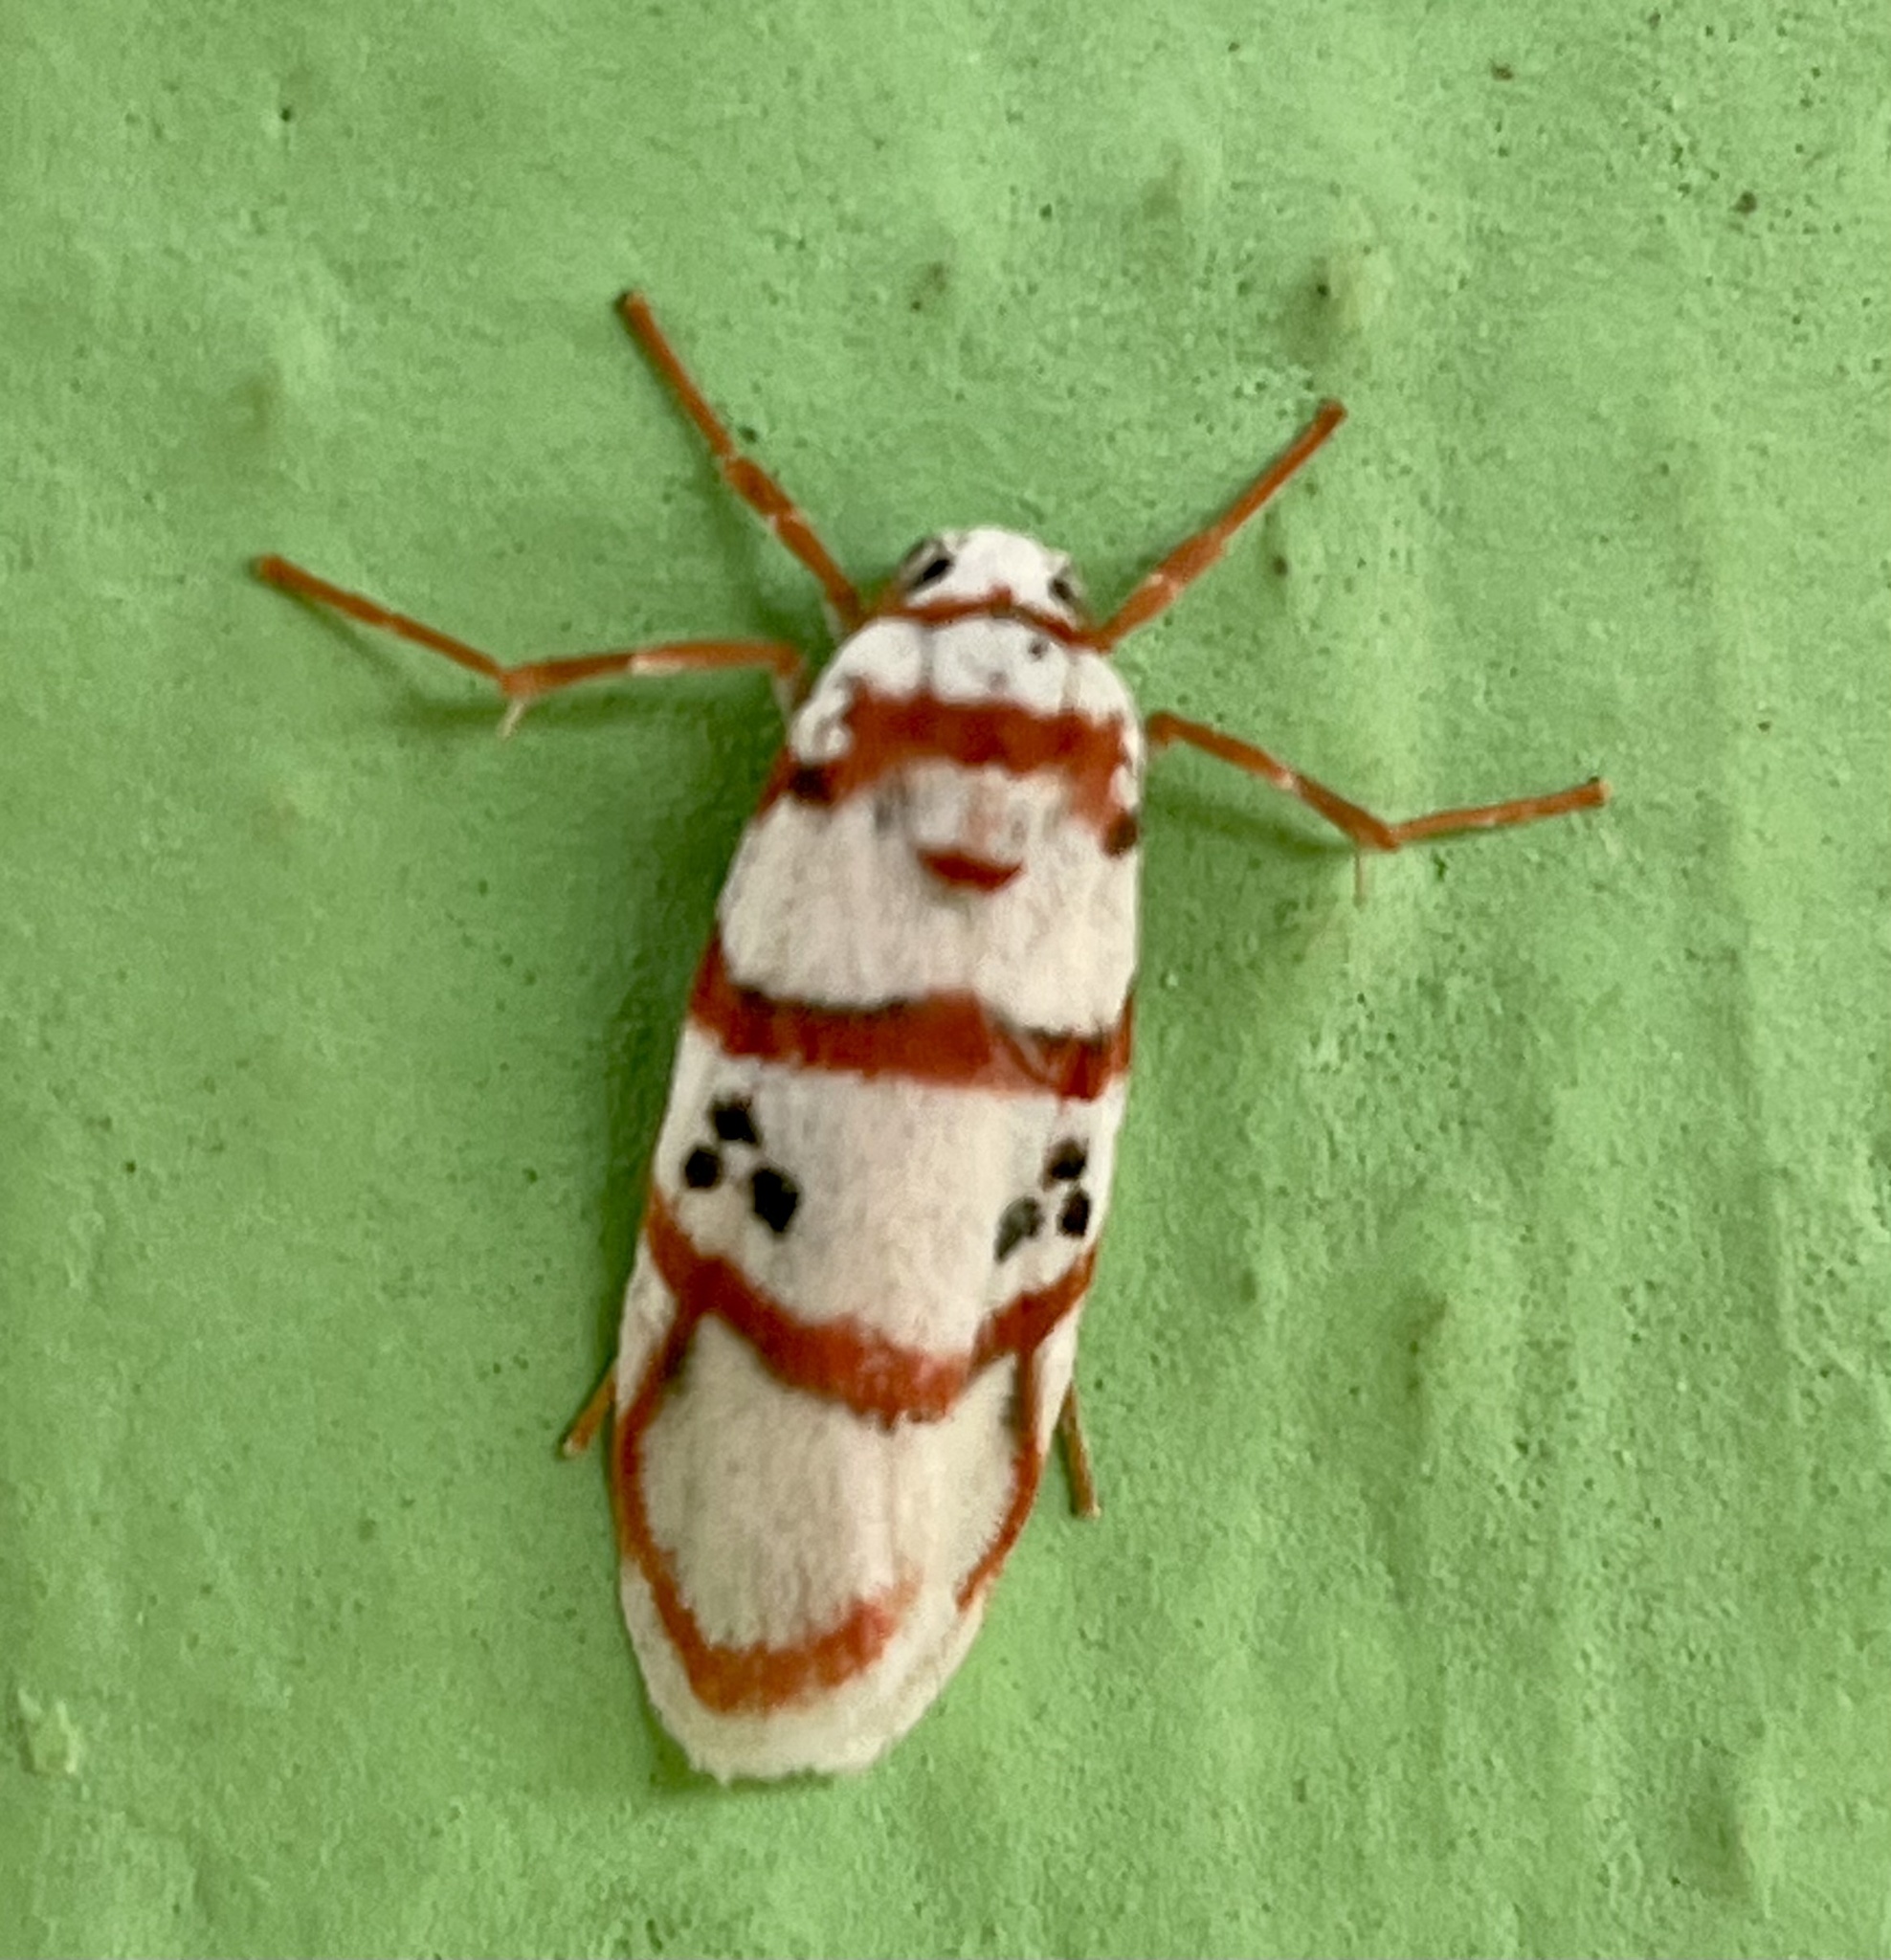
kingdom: Animalia
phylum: Arthropoda
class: Insecta
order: Lepidoptera
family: Erebidae
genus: Cyana
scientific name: Cyana peregrina
